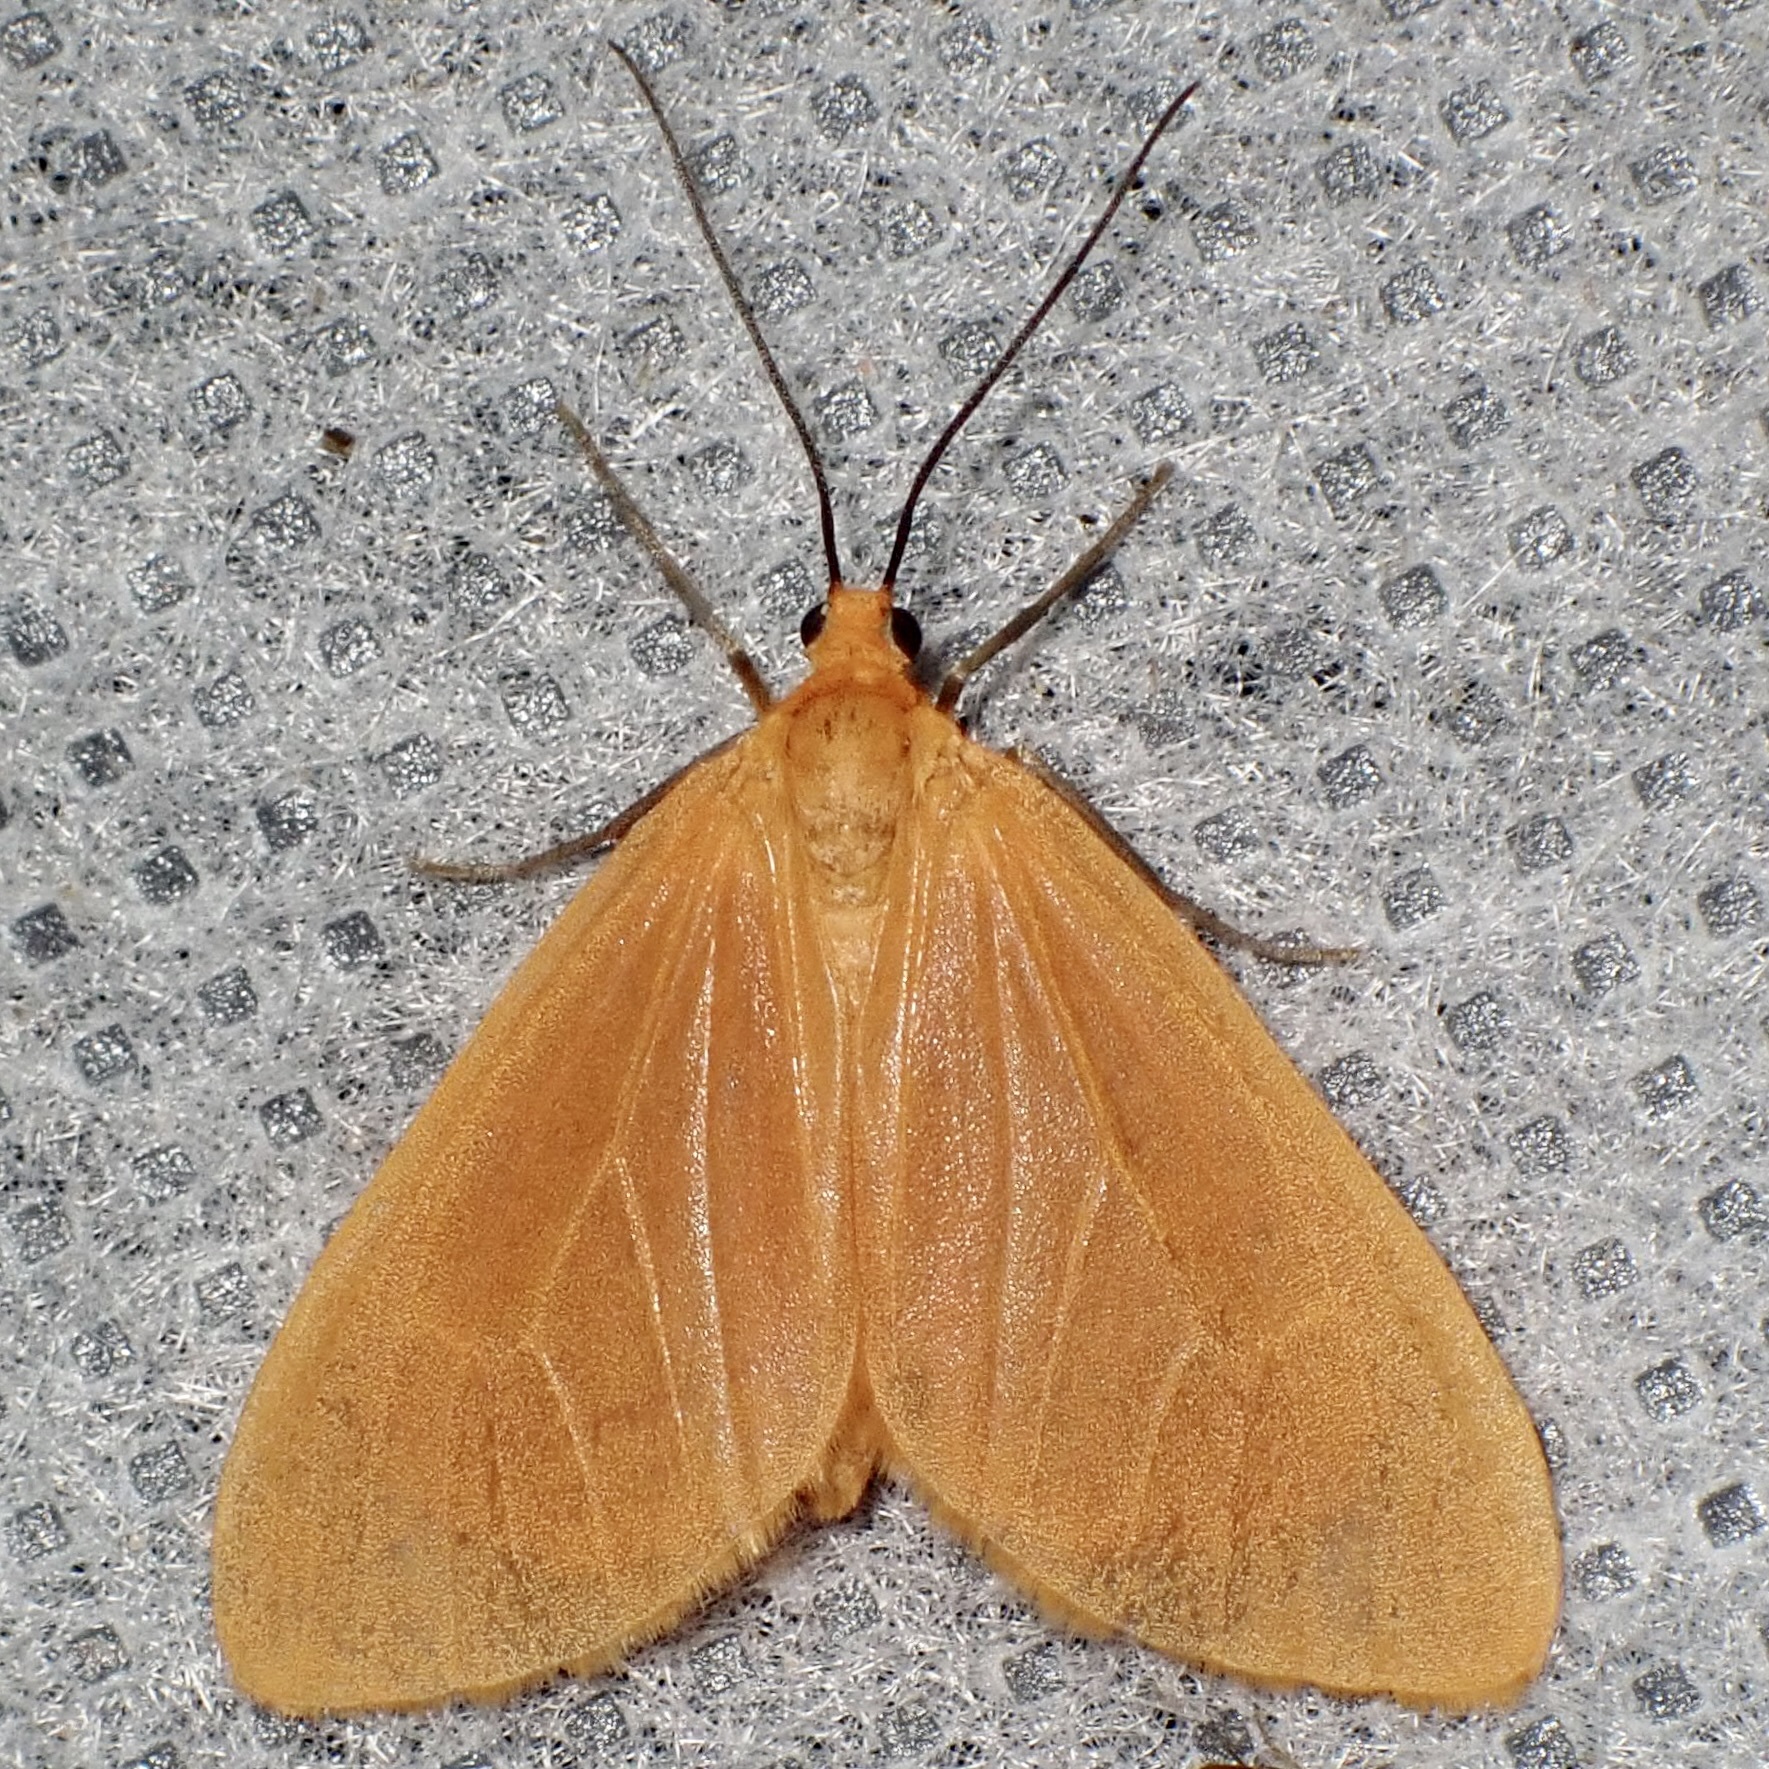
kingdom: Animalia
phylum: Arthropoda
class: Insecta
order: Lepidoptera
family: Geometridae
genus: Eubaphe
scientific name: Eubaphe unicolor
